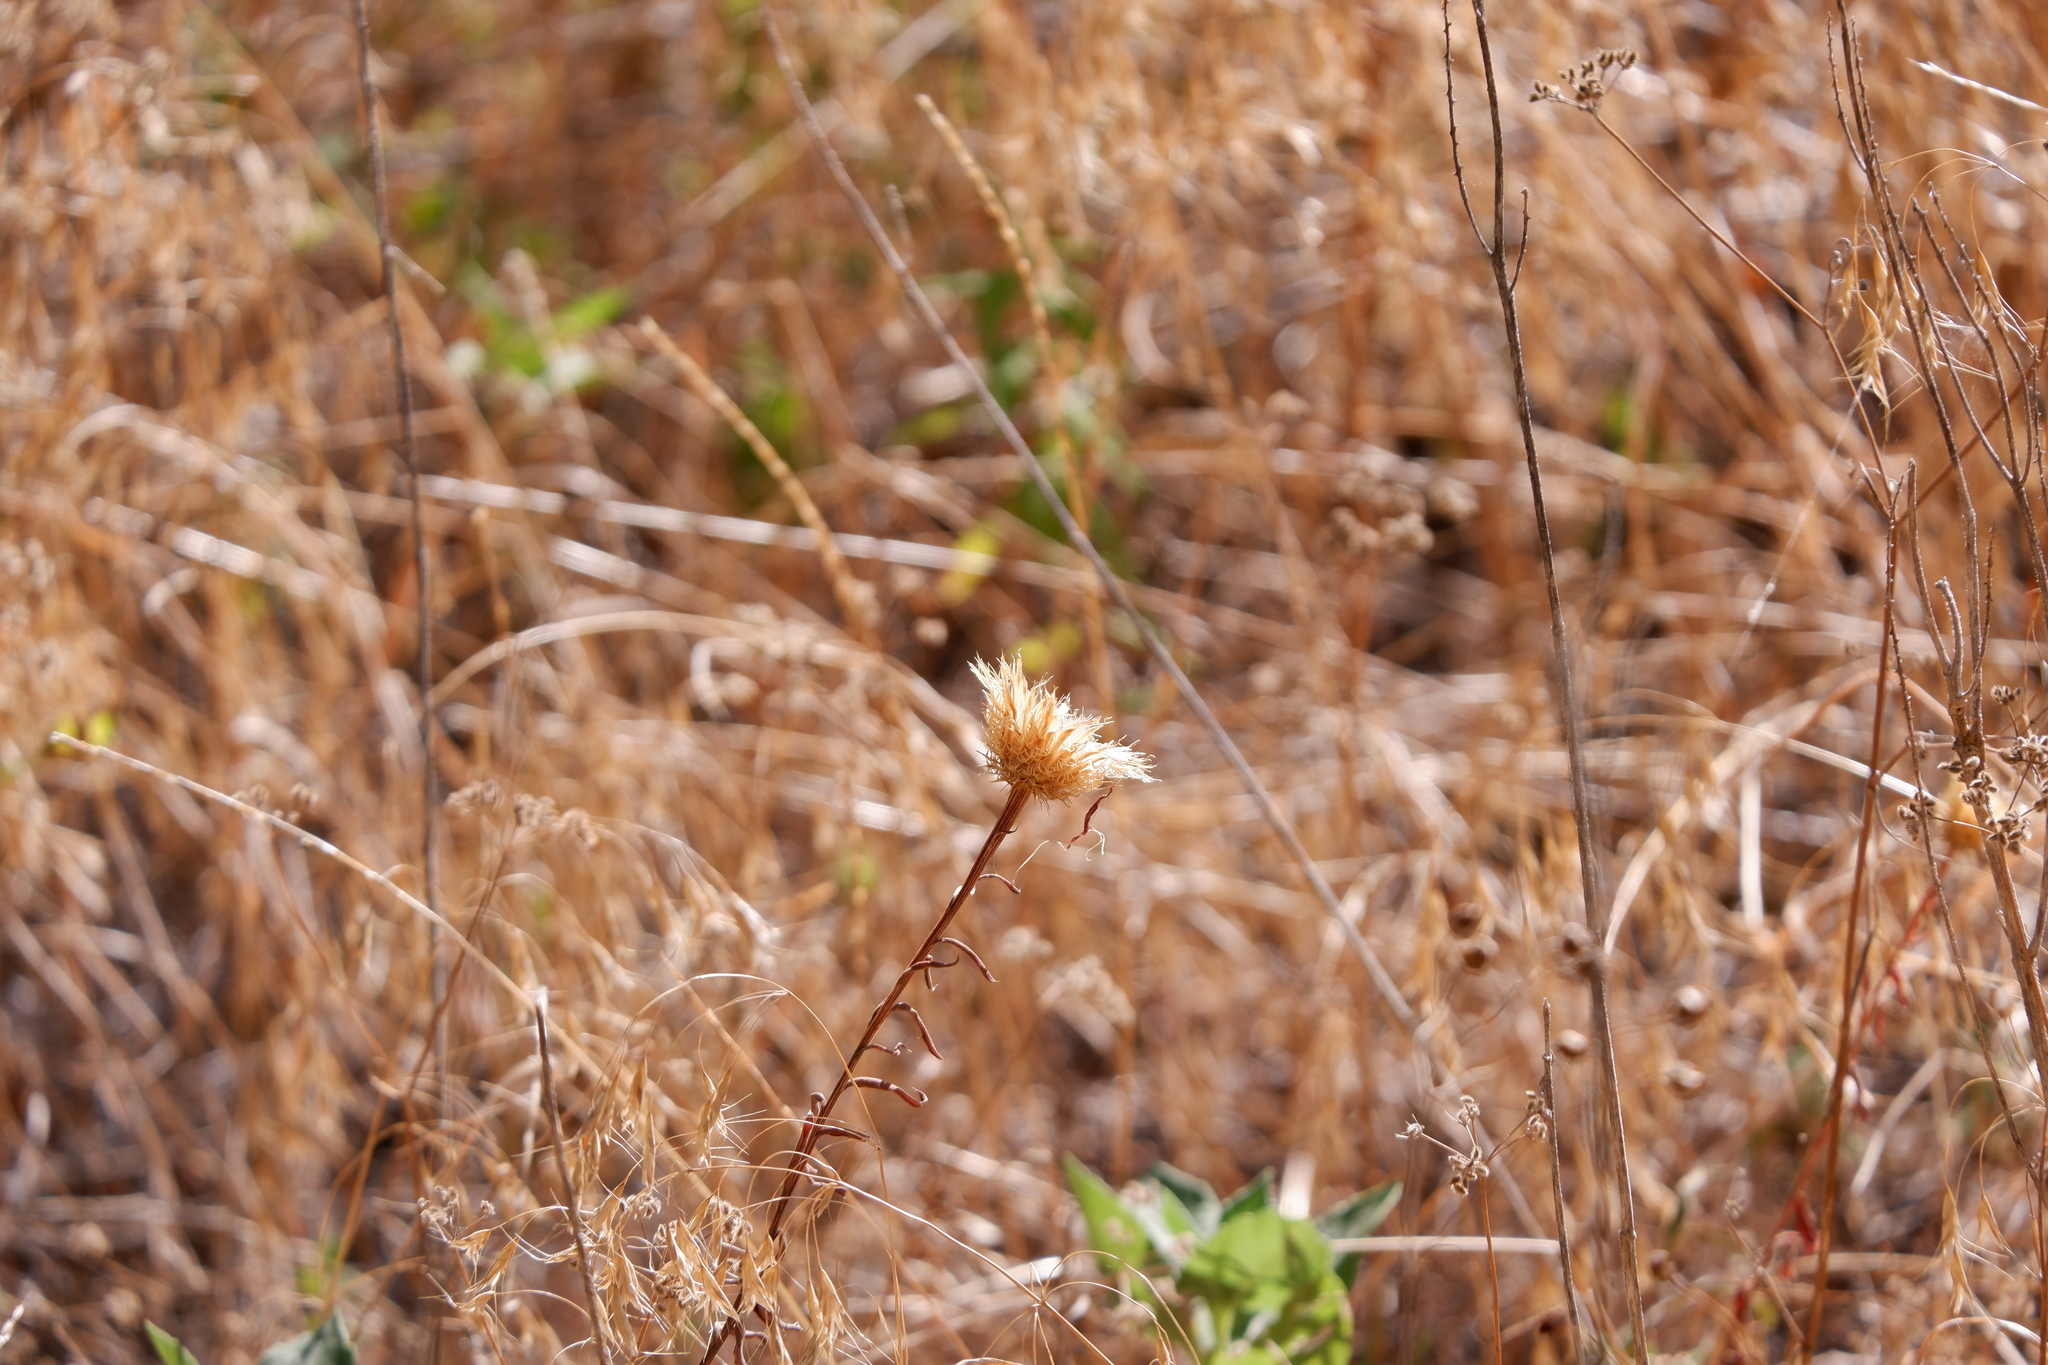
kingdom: Plantae
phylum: Tracheophyta
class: Magnoliopsida
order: Asterales
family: Asteraceae
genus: Plectocephalus
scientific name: Plectocephalus americanus
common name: American basket-flower
